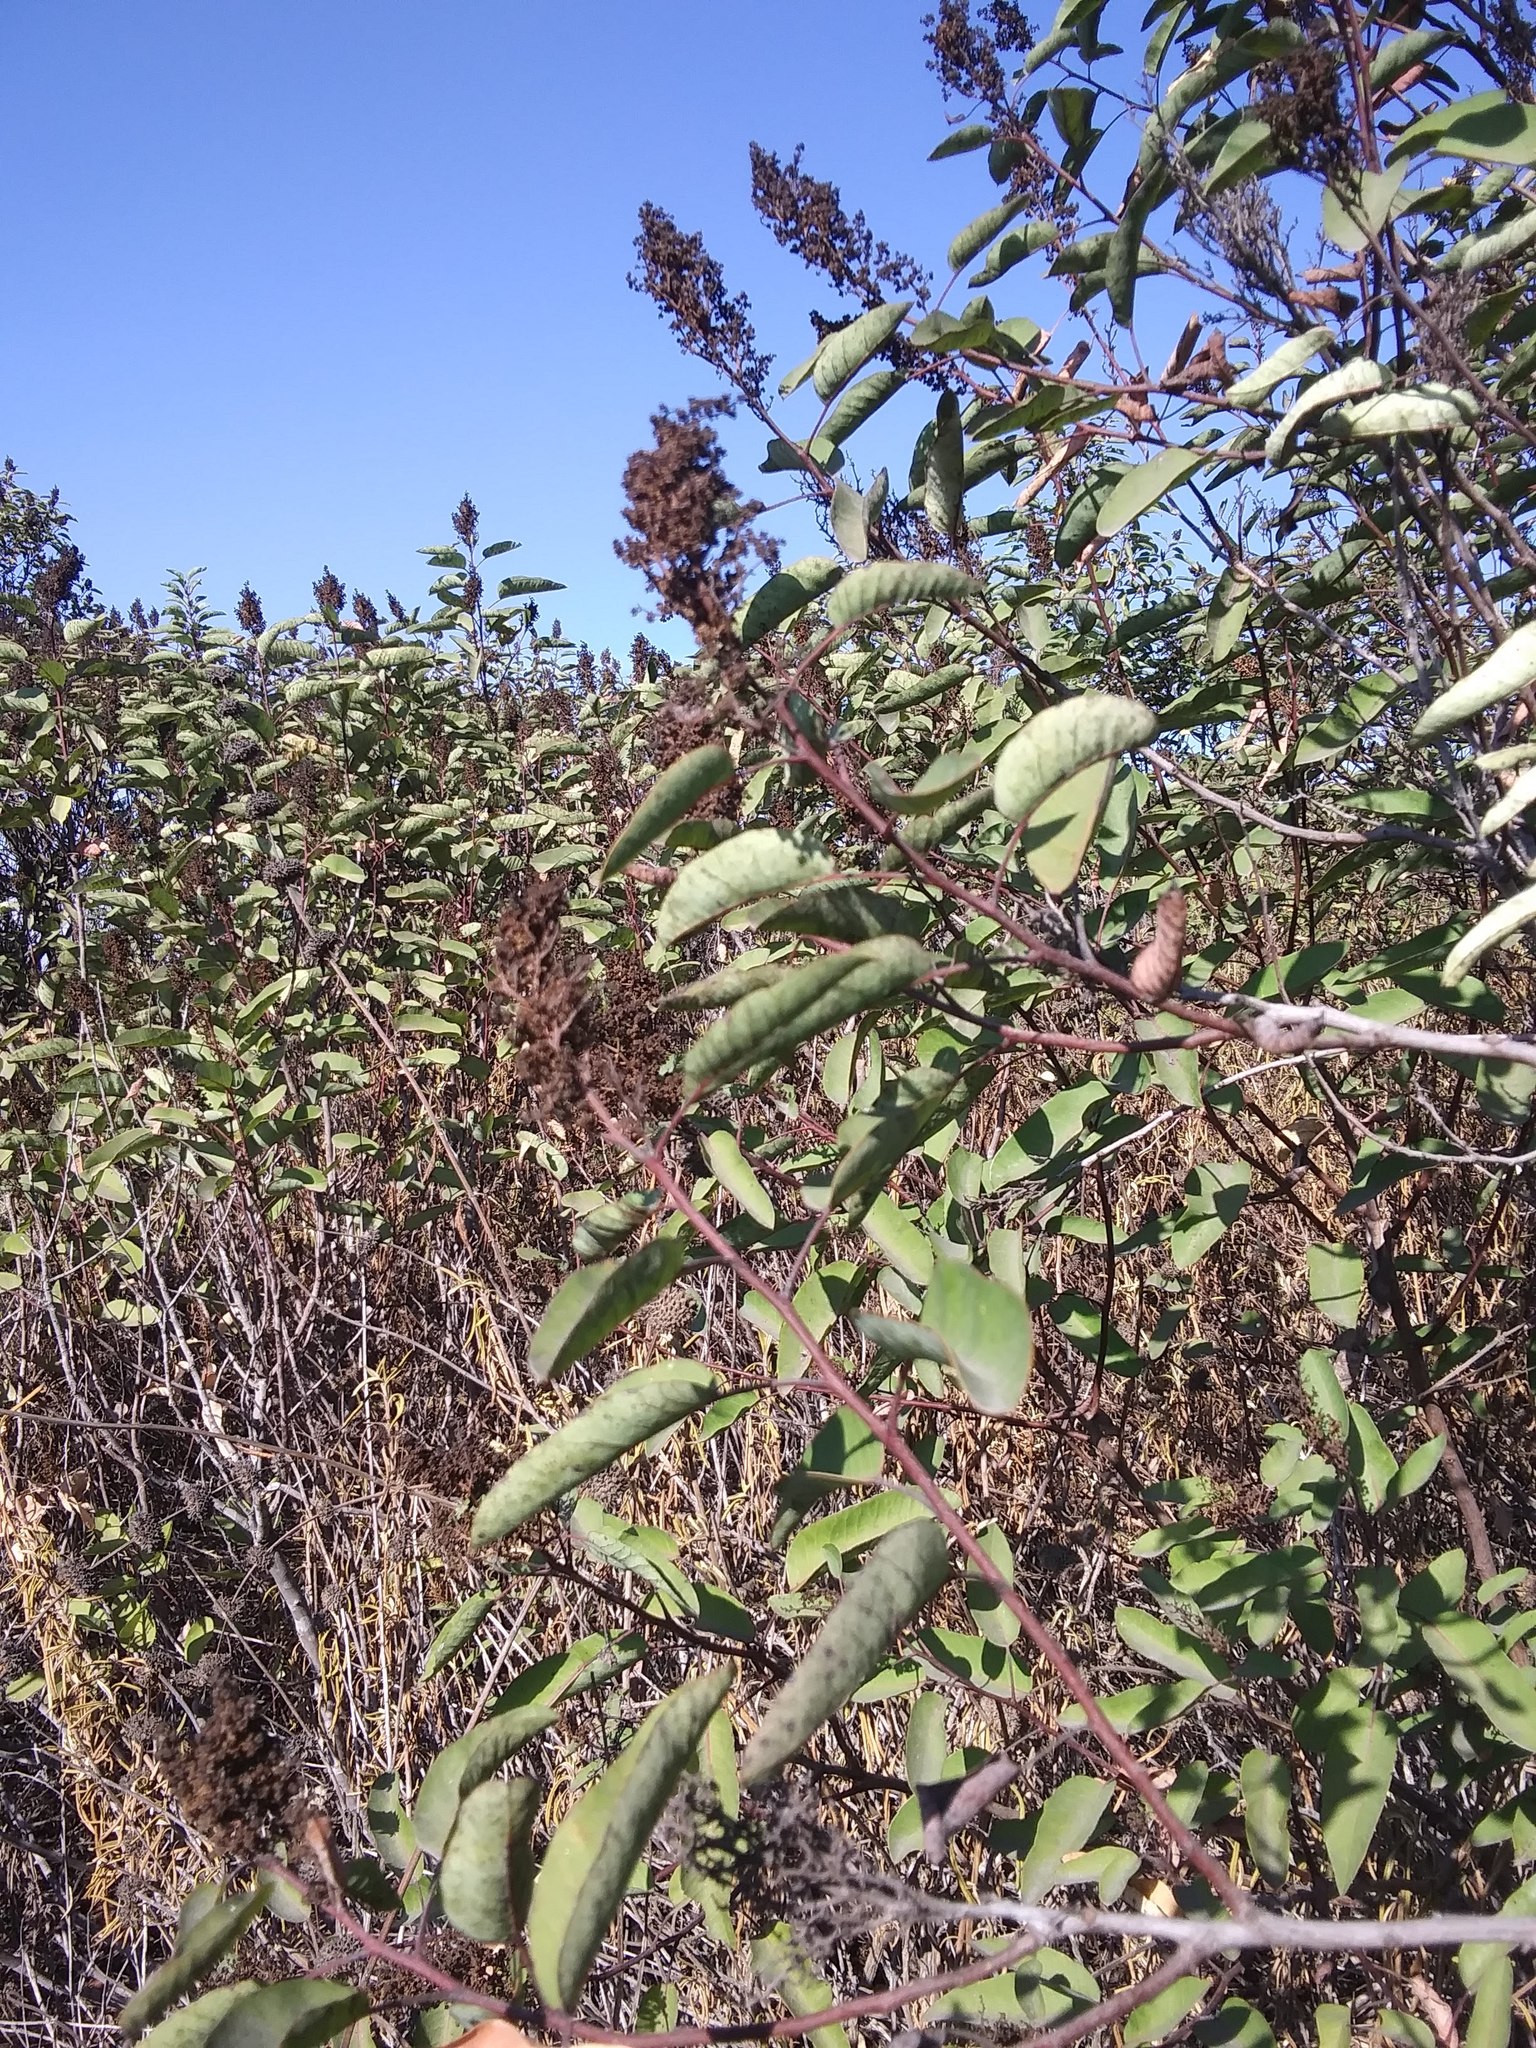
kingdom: Plantae
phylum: Tracheophyta
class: Magnoliopsida
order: Sapindales
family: Anacardiaceae
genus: Malosma
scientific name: Malosma laurina
